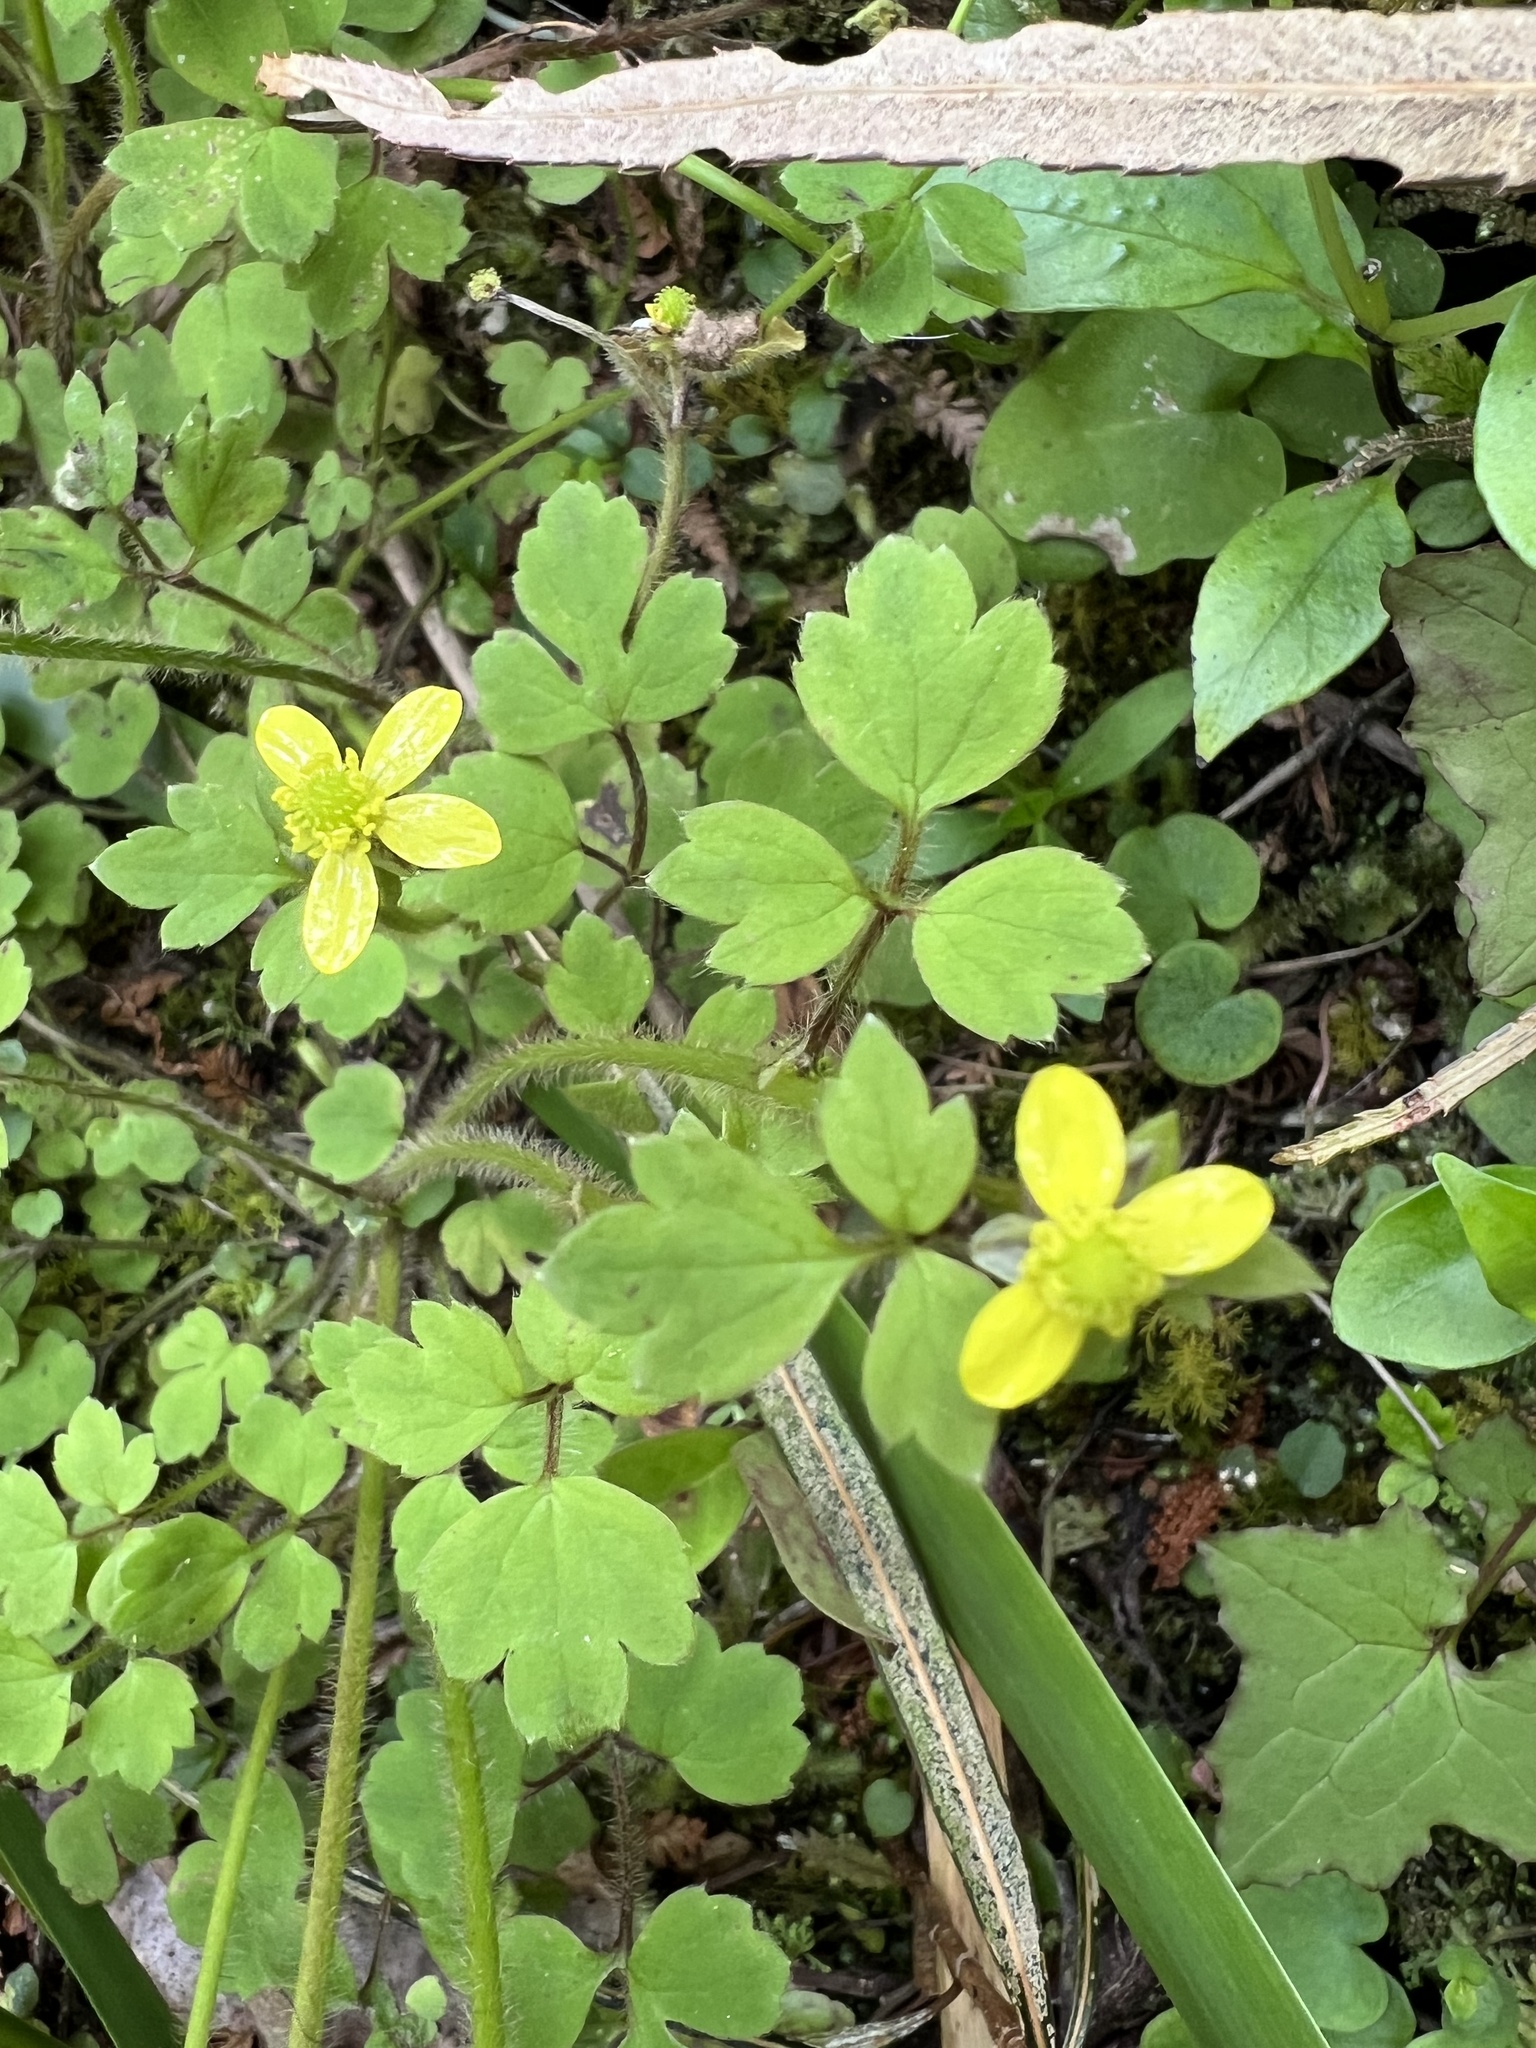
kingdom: Plantae
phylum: Tracheophyta
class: Magnoliopsida
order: Ranunculales
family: Ranunculaceae
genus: Ranunculus
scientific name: Ranunculus reflexus
